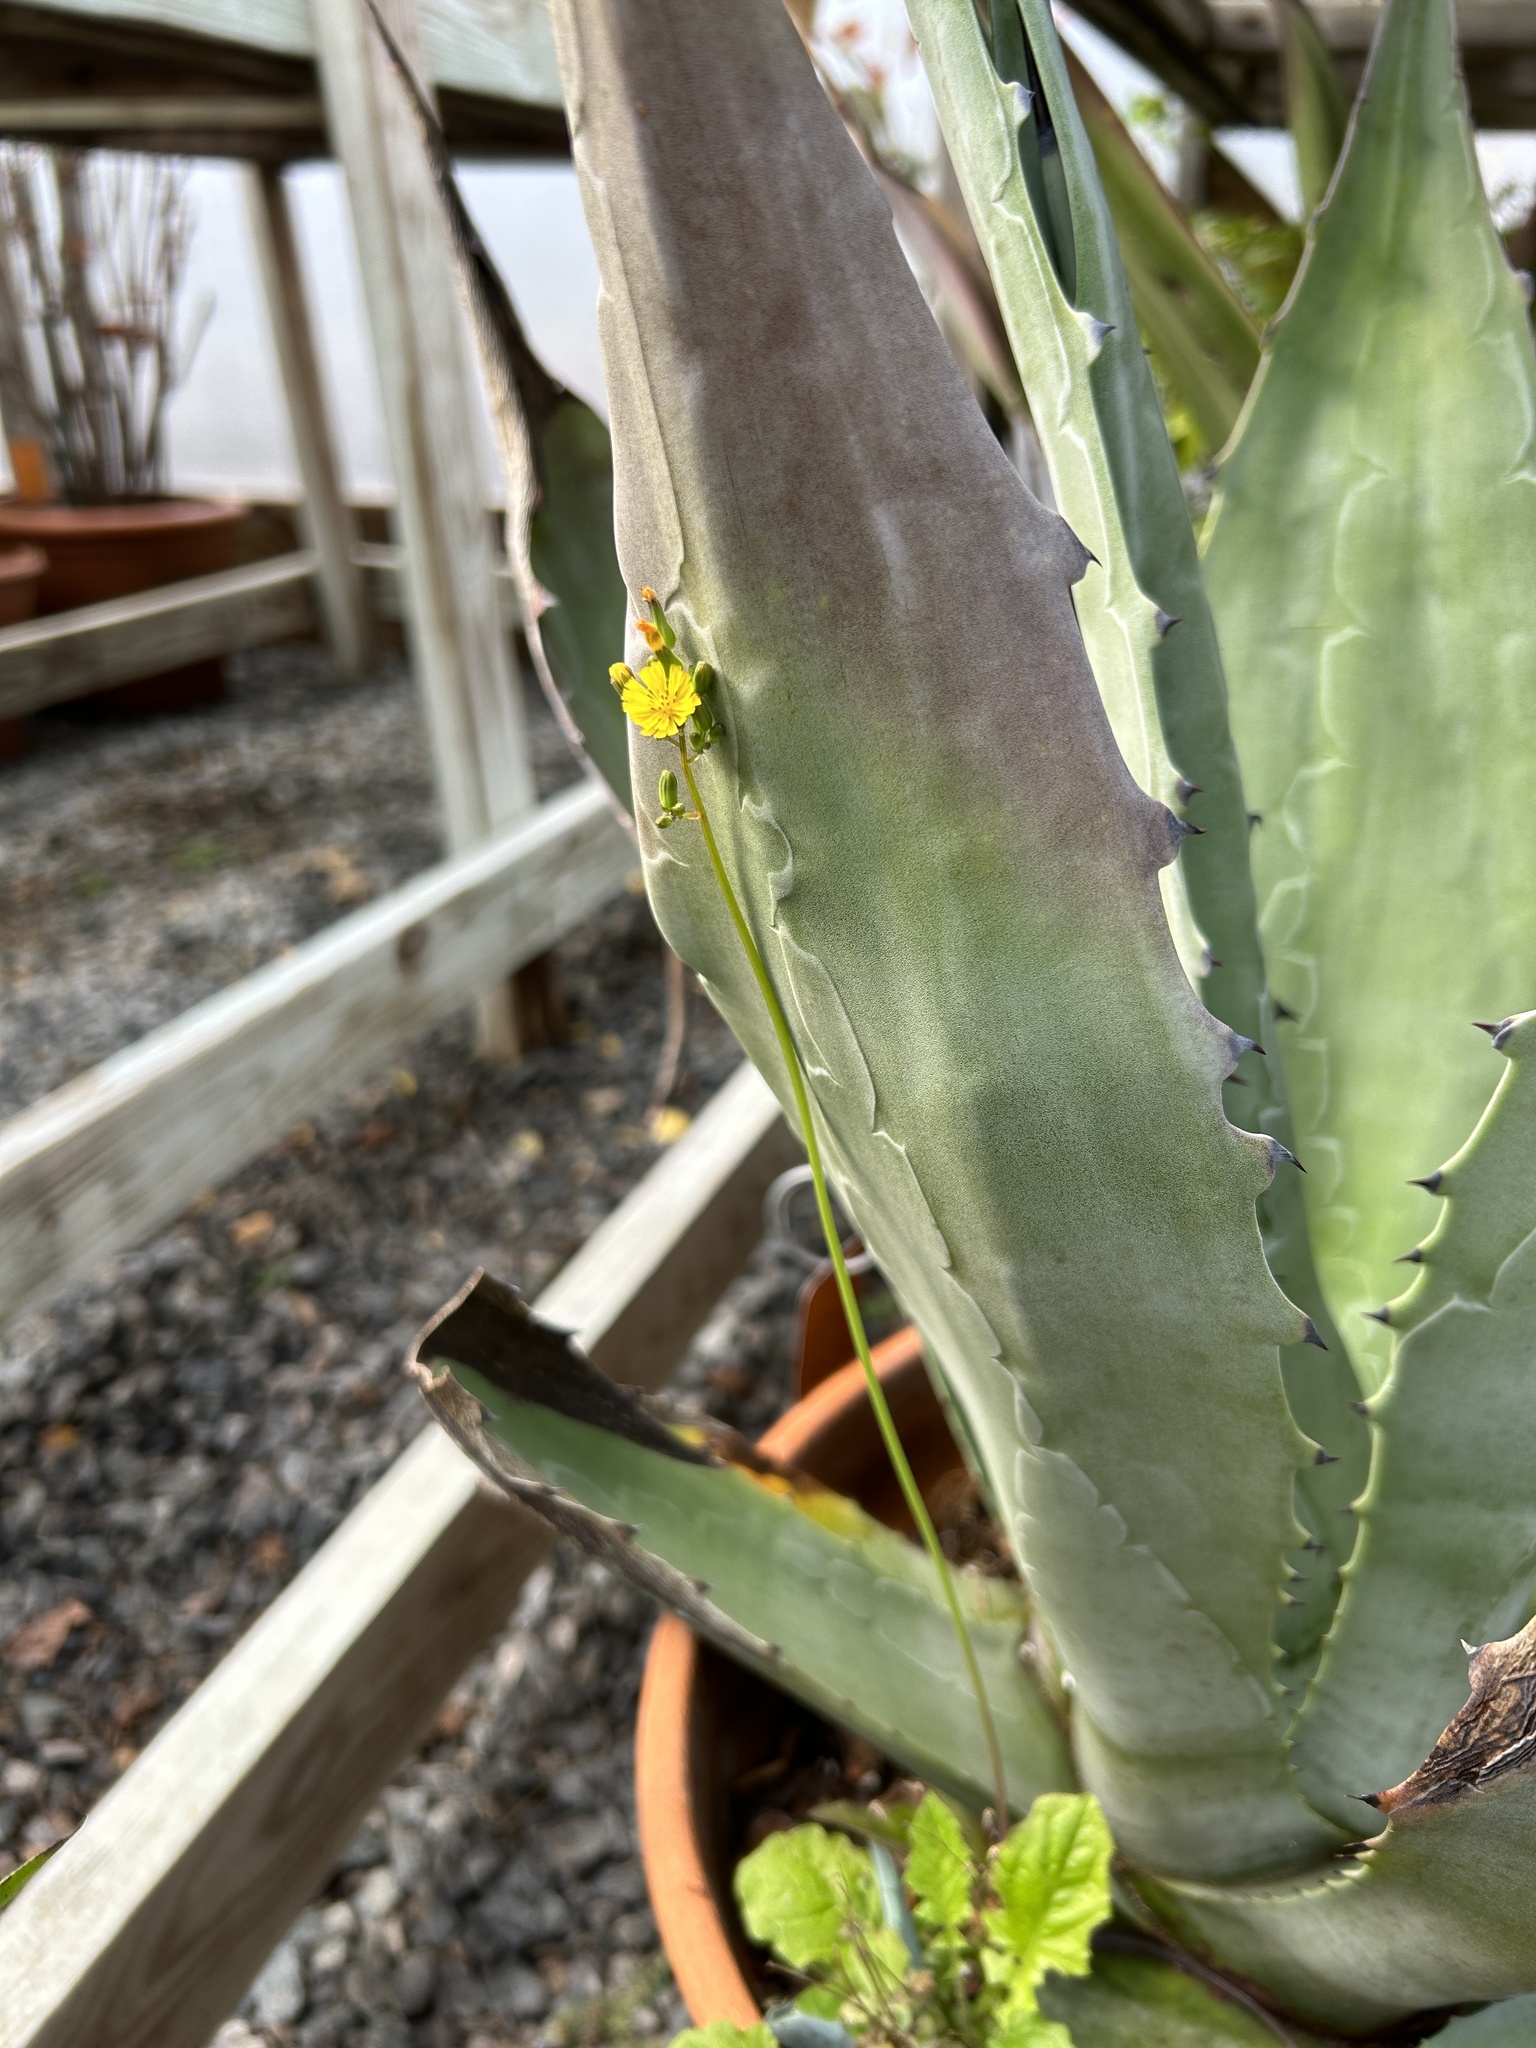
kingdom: Plantae
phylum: Tracheophyta
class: Magnoliopsida
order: Asterales
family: Asteraceae
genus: Youngia
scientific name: Youngia japonica
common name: Oriental false hawksbeard
